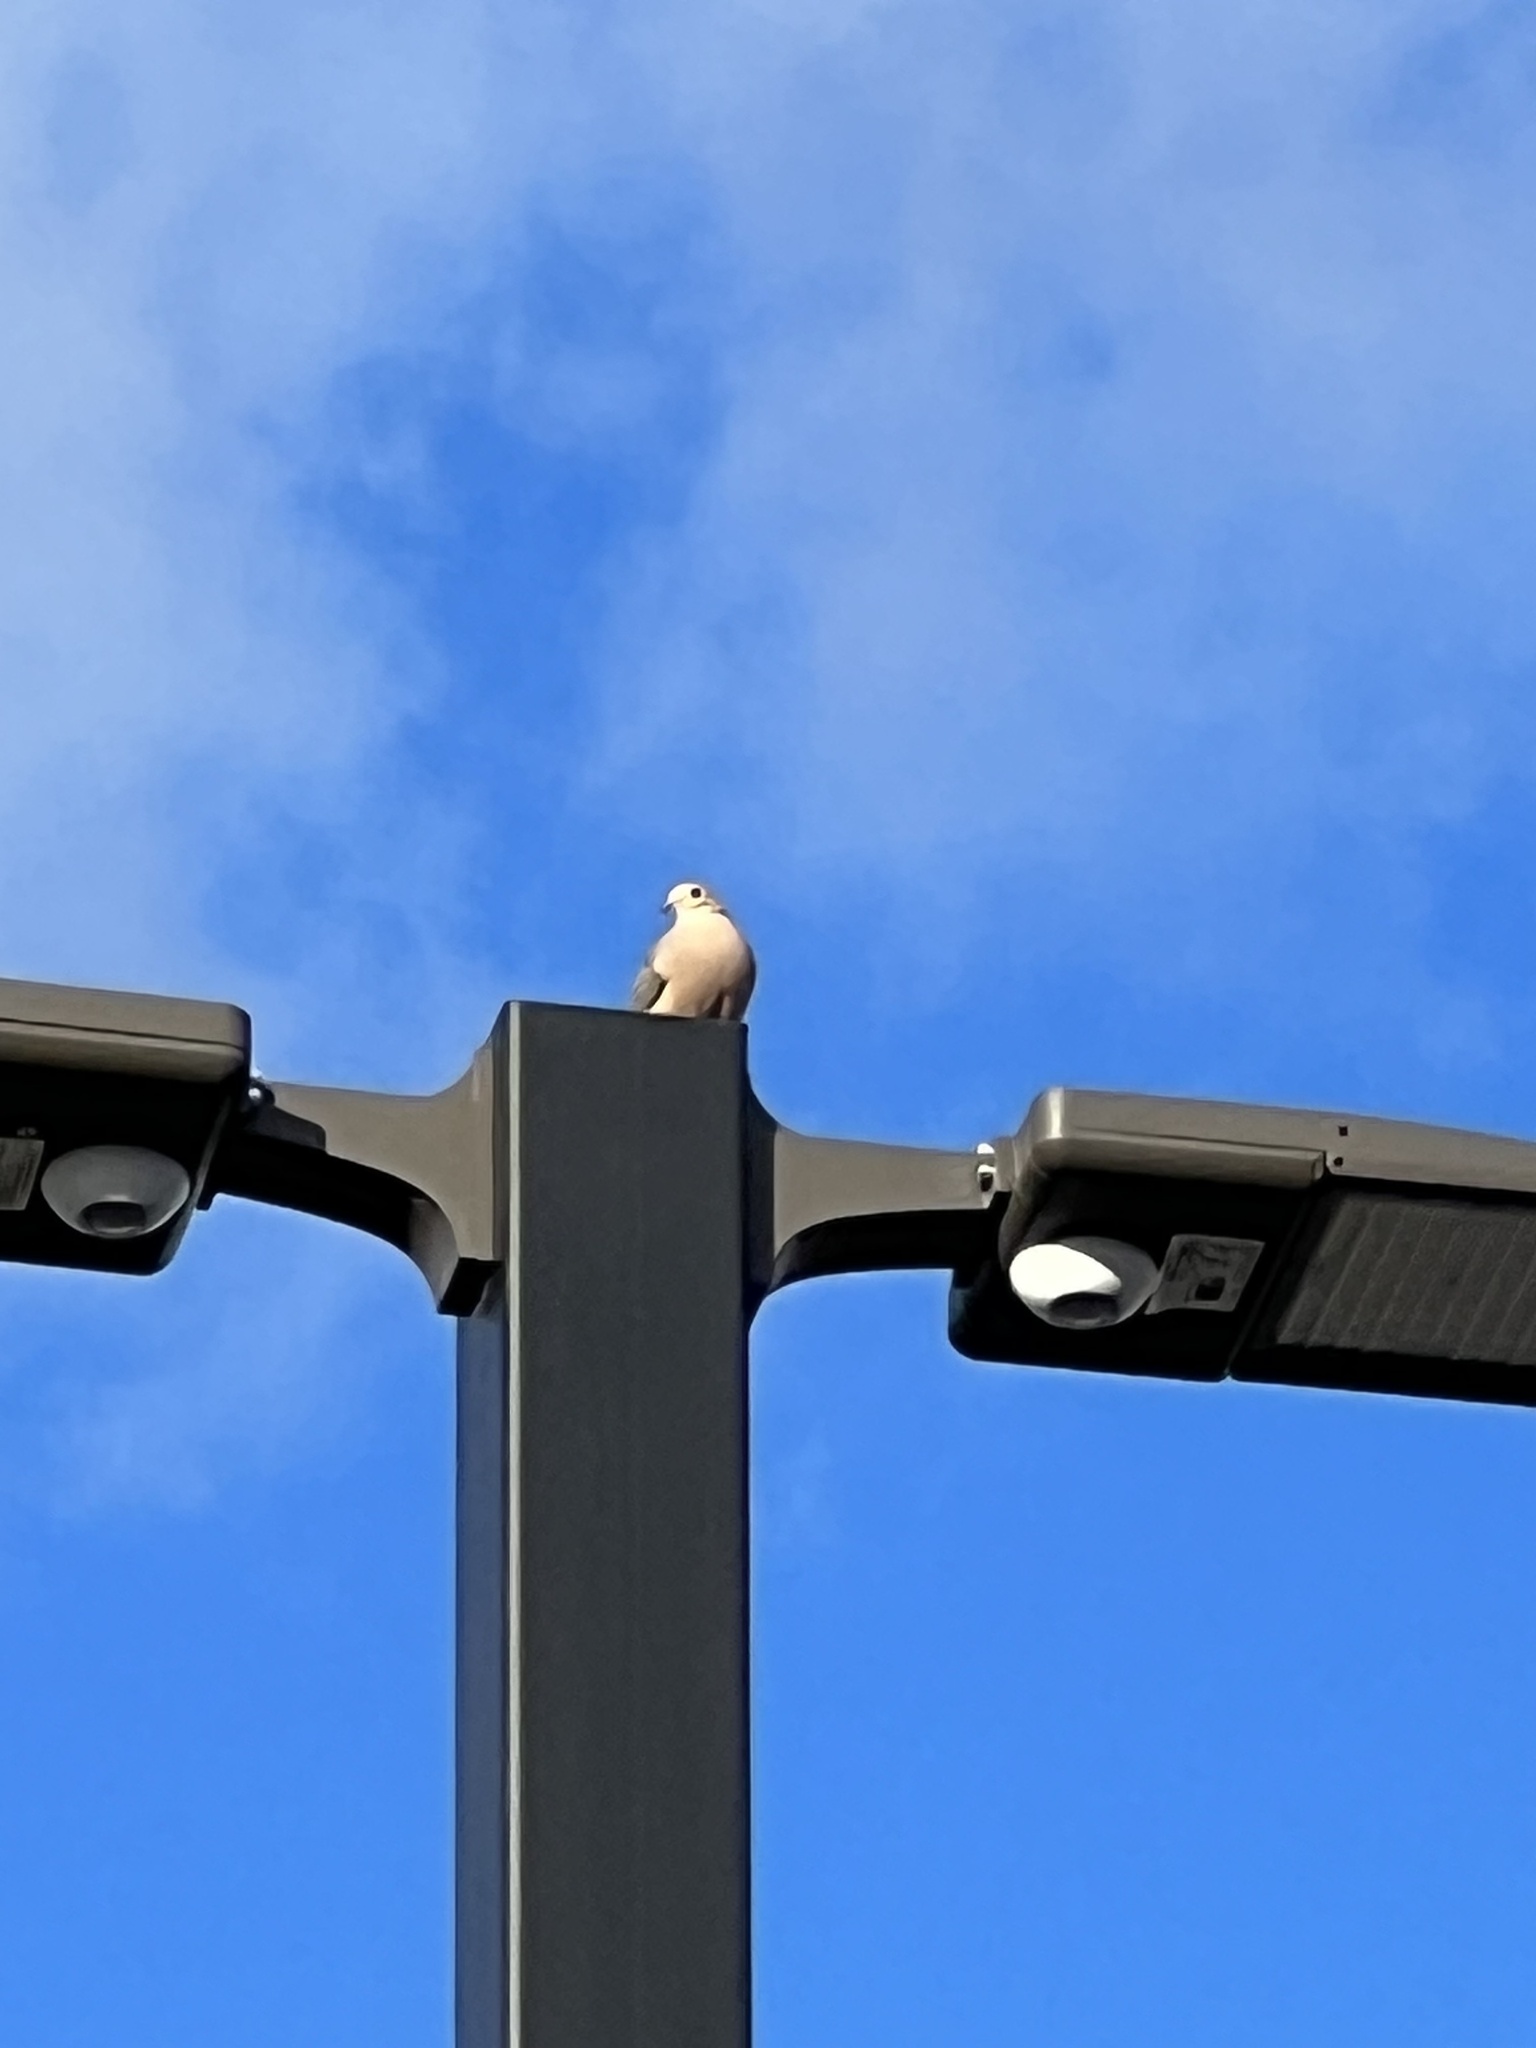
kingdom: Animalia
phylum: Chordata
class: Aves
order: Columbiformes
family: Columbidae
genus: Zenaida
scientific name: Zenaida macroura
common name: Mourning dove
